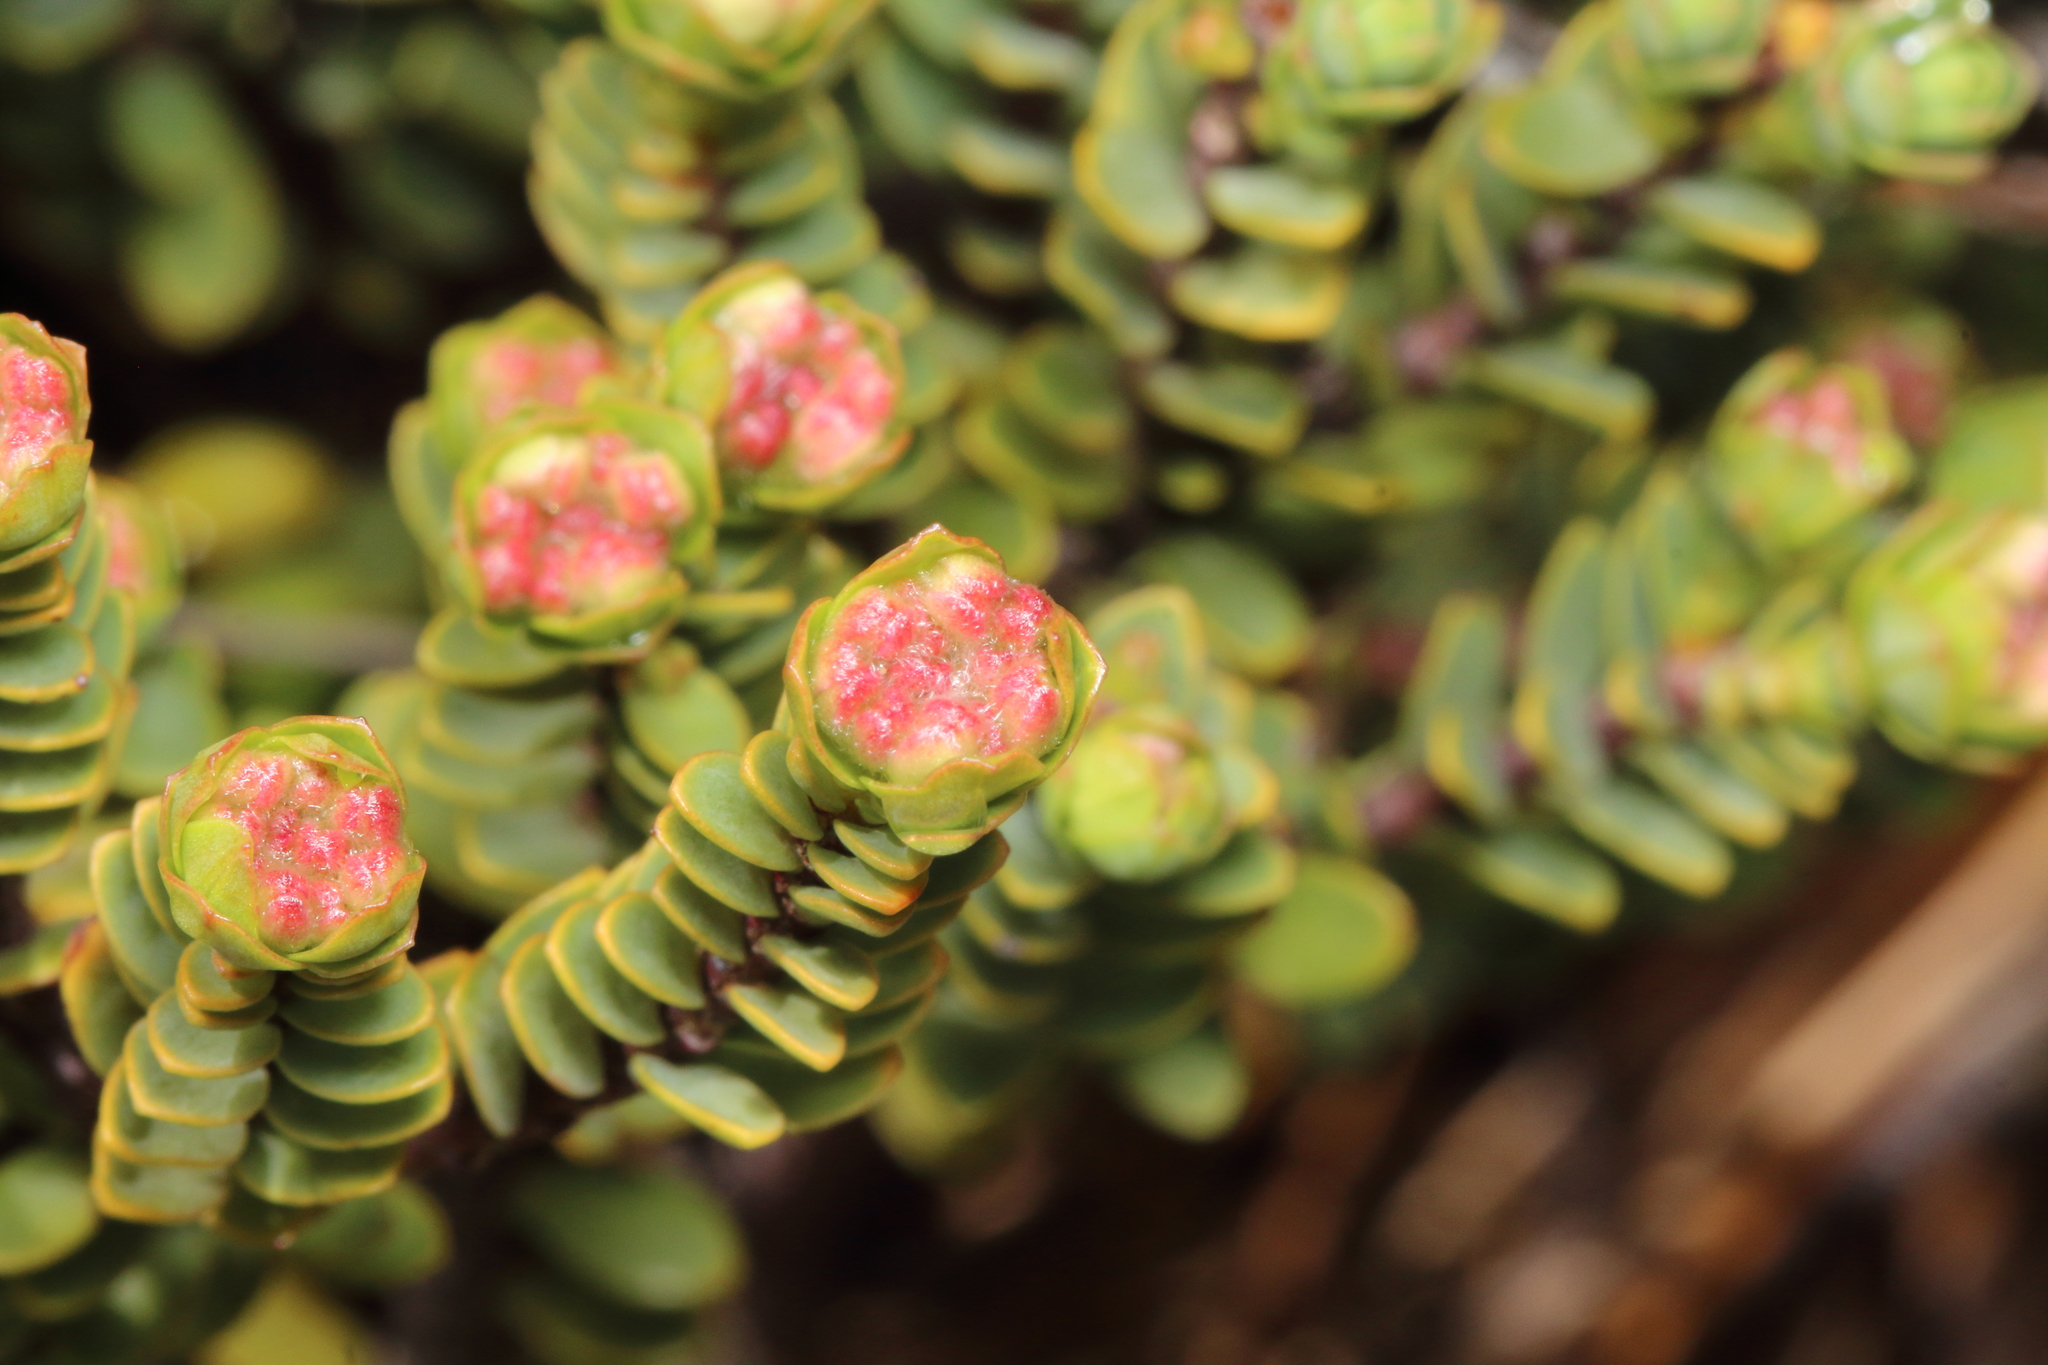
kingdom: Plantae
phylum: Tracheophyta
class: Magnoliopsida
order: Malvales
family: Thymelaeaceae
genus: Pimelea
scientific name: Pimelea traversii
